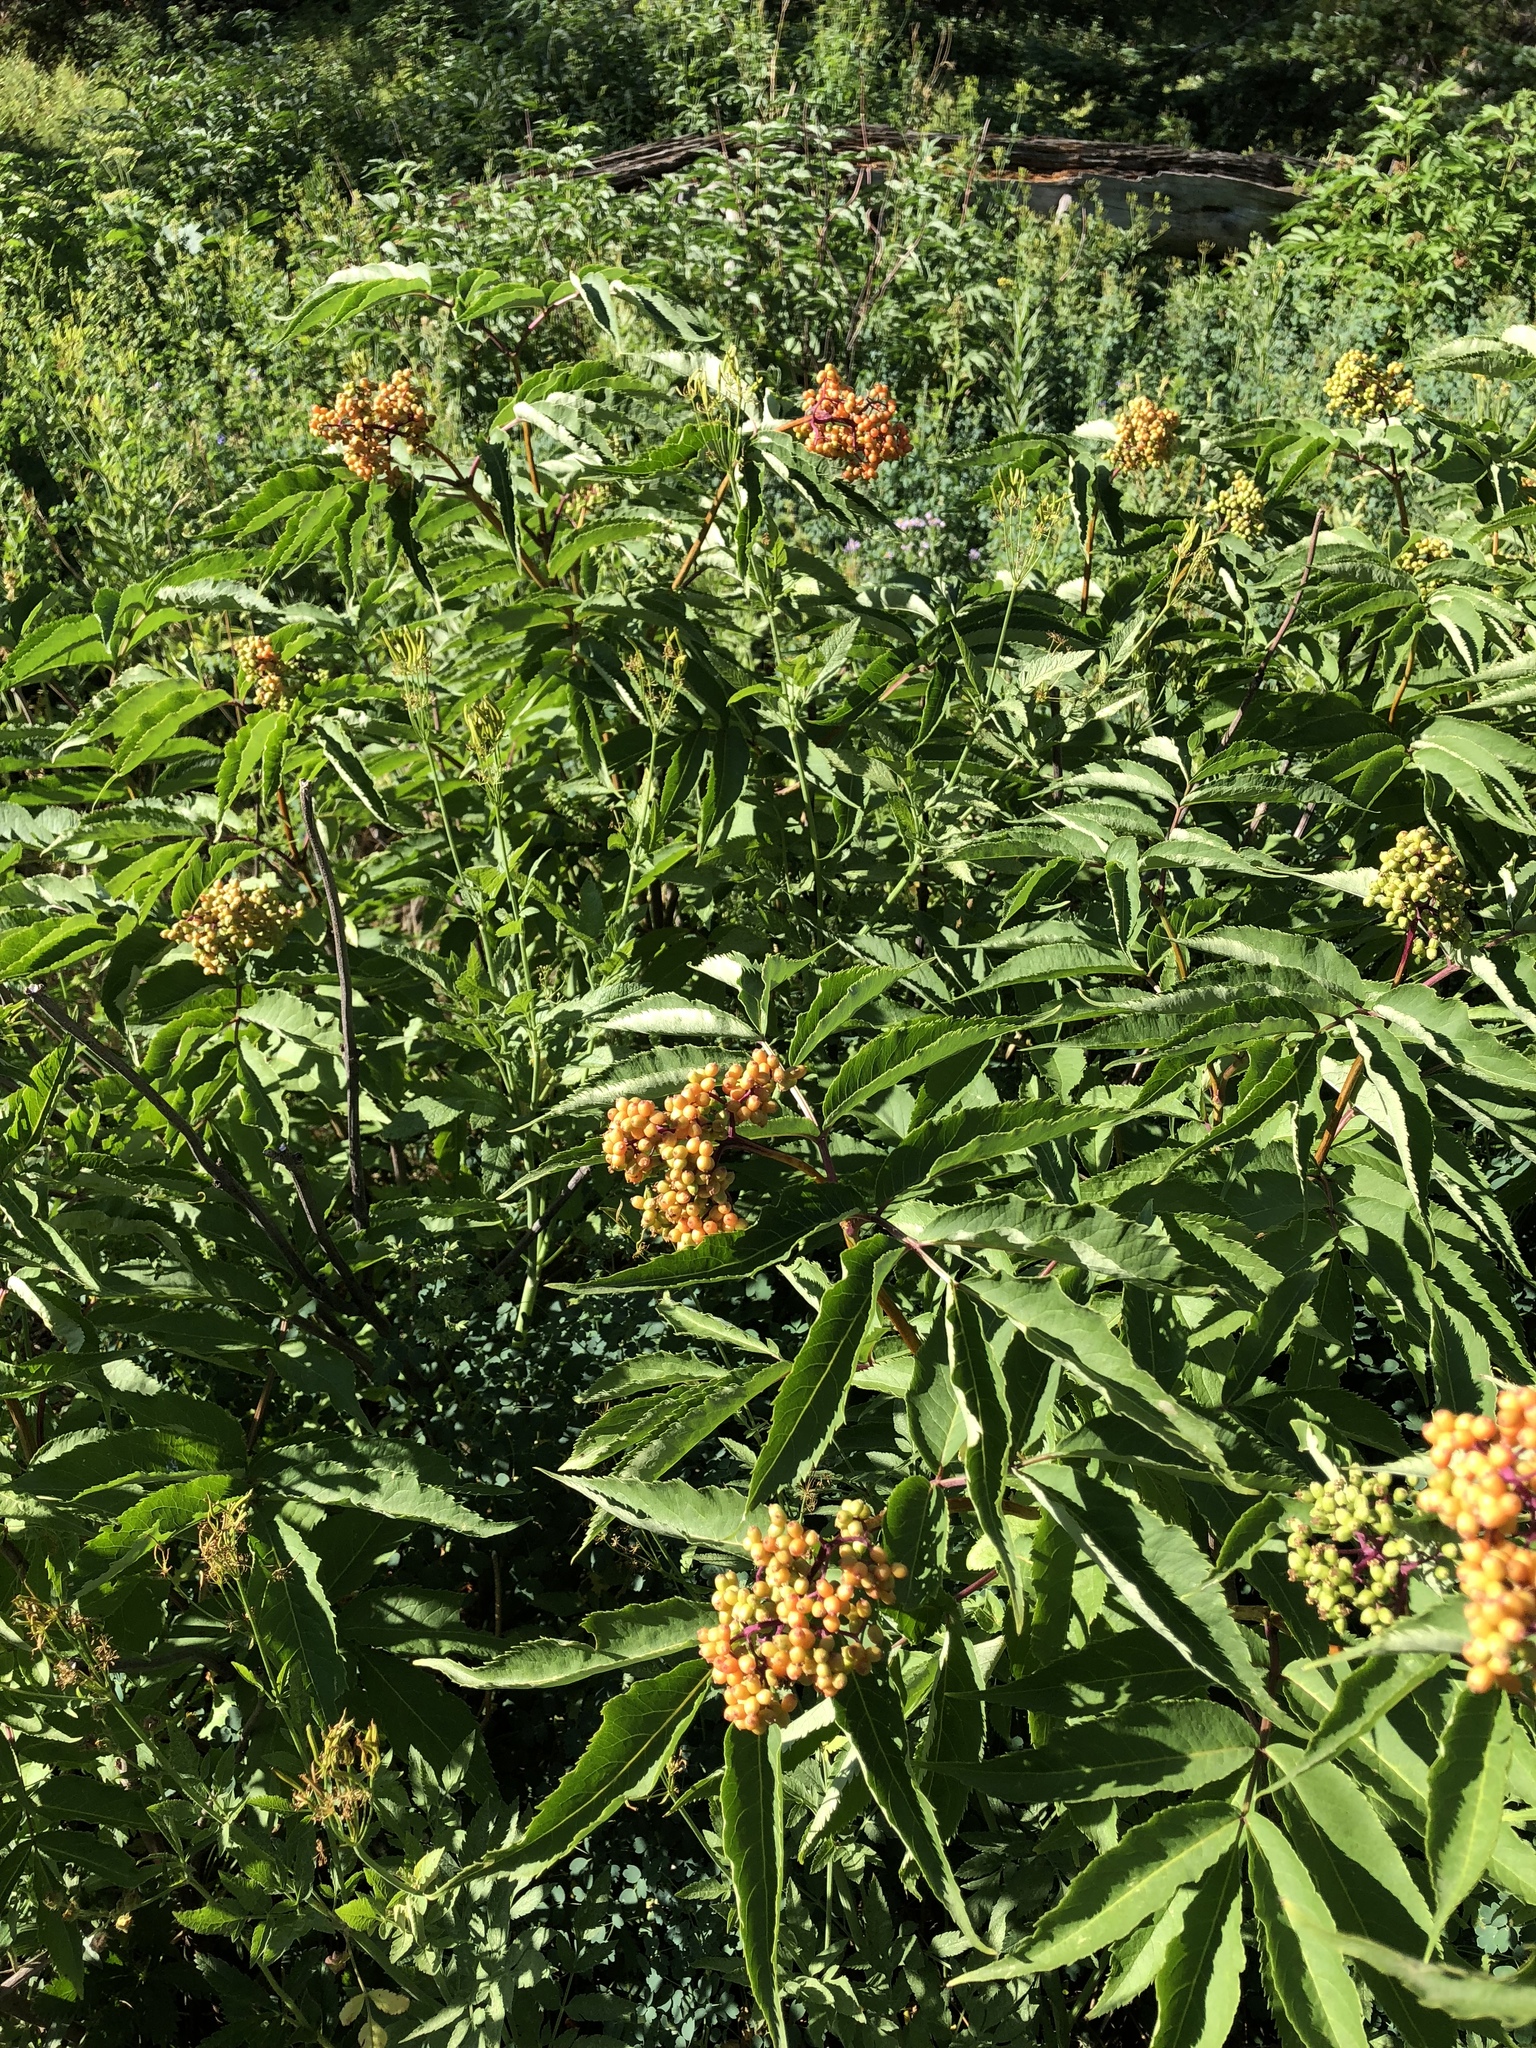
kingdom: Plantae
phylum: Tracheophyta
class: Magnoliopsida
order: Dipsacales
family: Viburnaceae
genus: Sambucus
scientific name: Sambucus racemosa
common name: Red-berried elder
